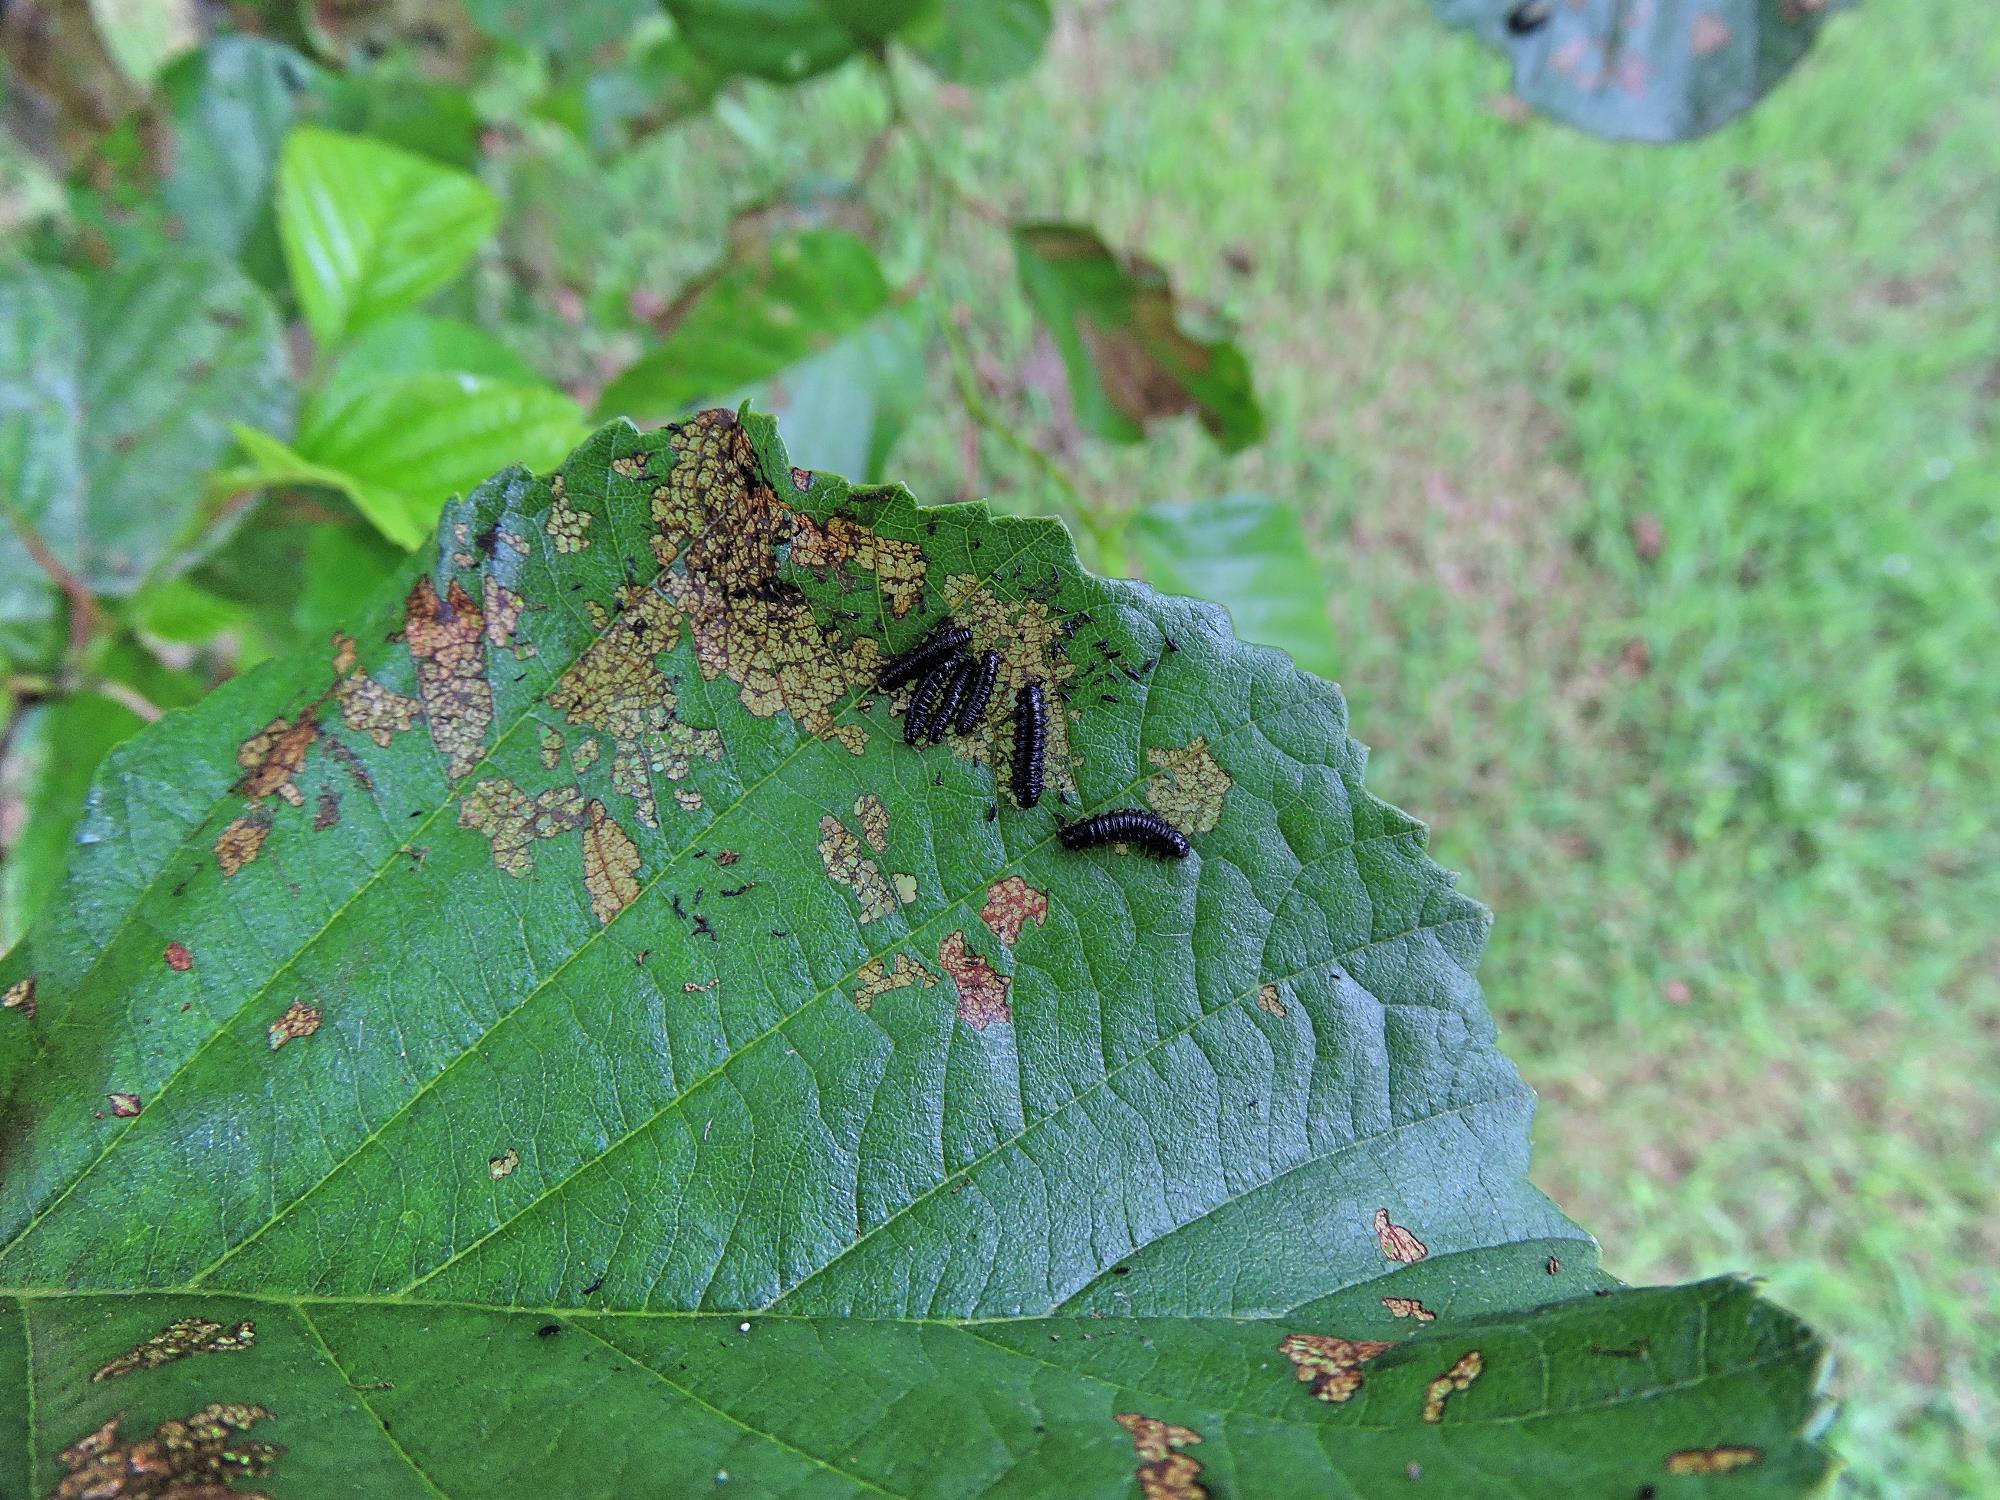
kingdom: Animalia
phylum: Arthropoda
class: Insecta
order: Coleoptera
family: Chrysomelidae
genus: Agelastica
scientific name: Agelastica alni
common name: Alder leaf beetle
